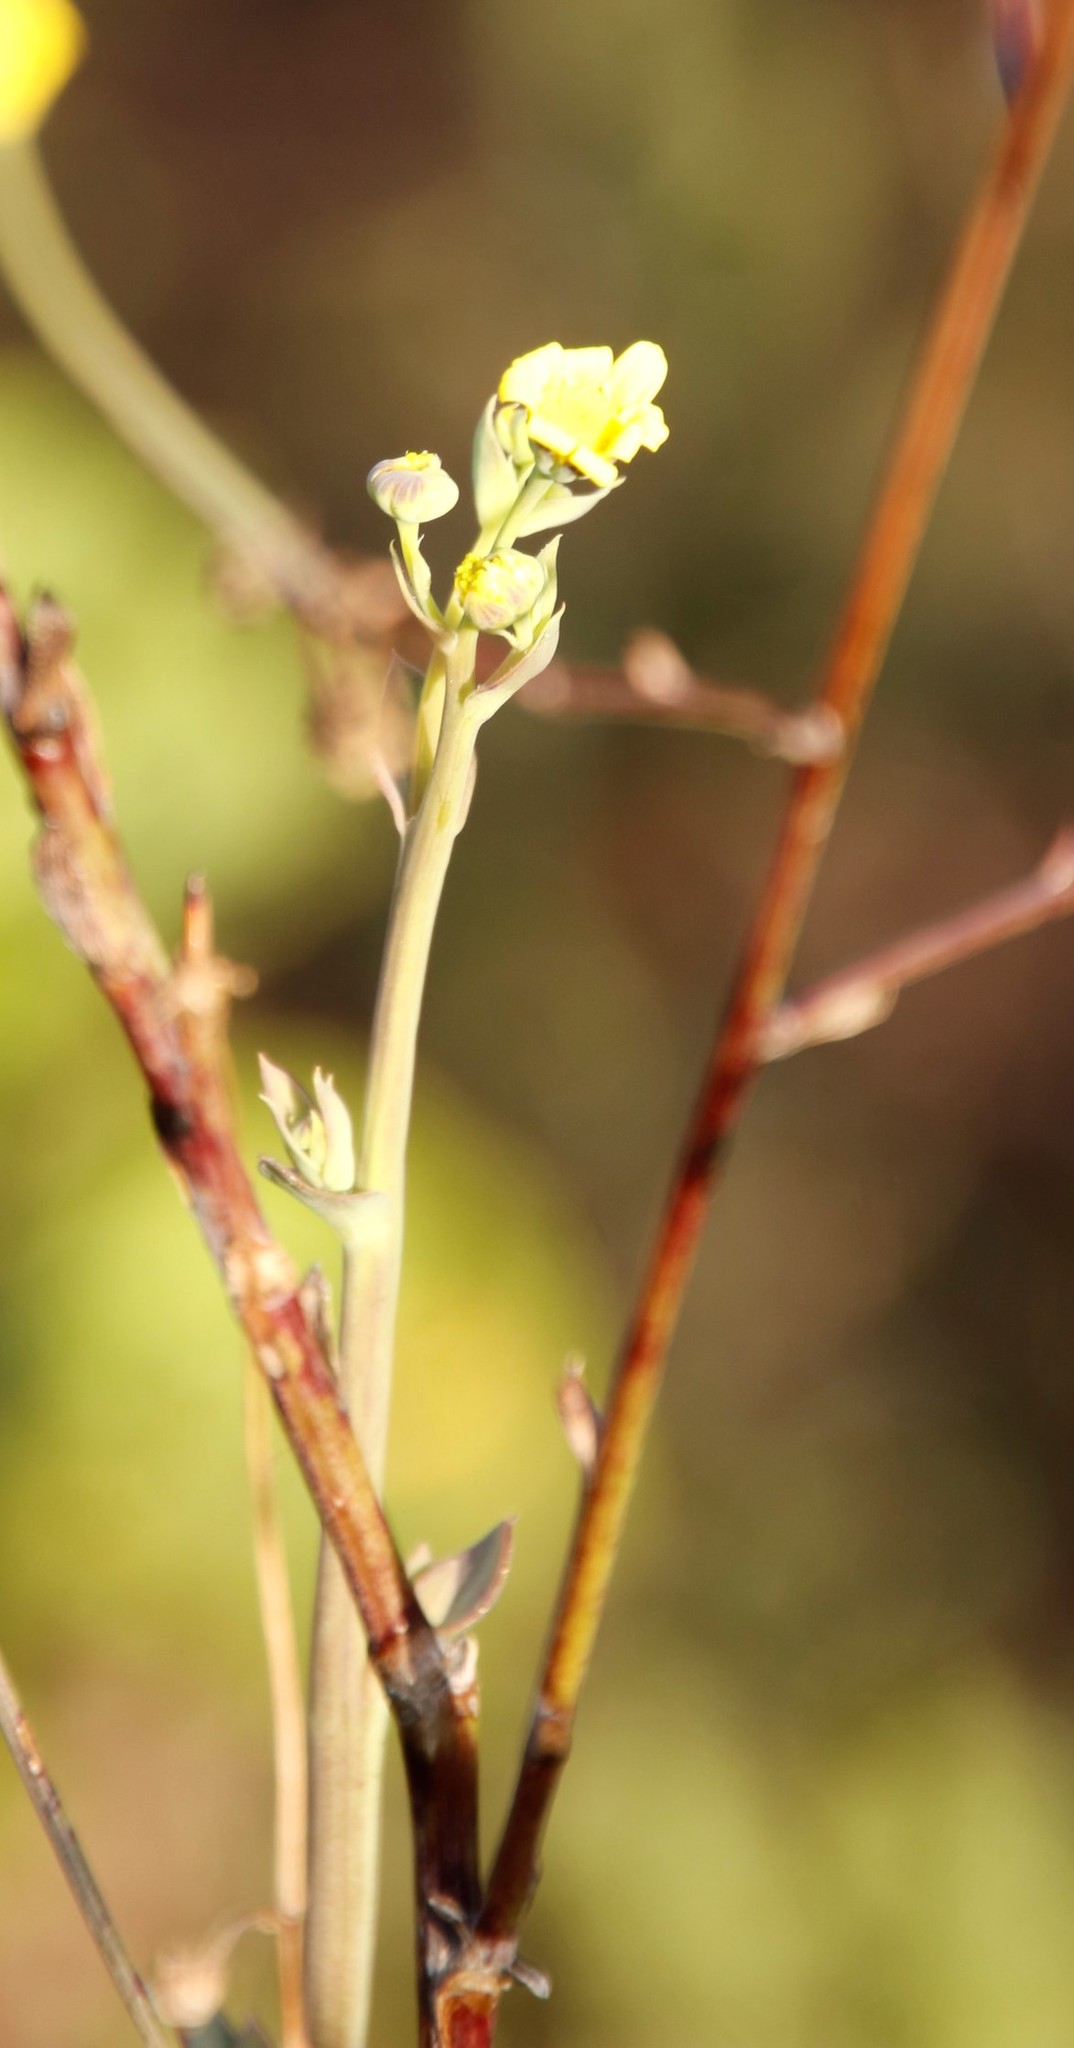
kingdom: Plantae
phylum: Tracheophyta
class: Magnoliopsida
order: Asterales
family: Asteraceae
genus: Othonna
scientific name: Othonna quinquedentata
